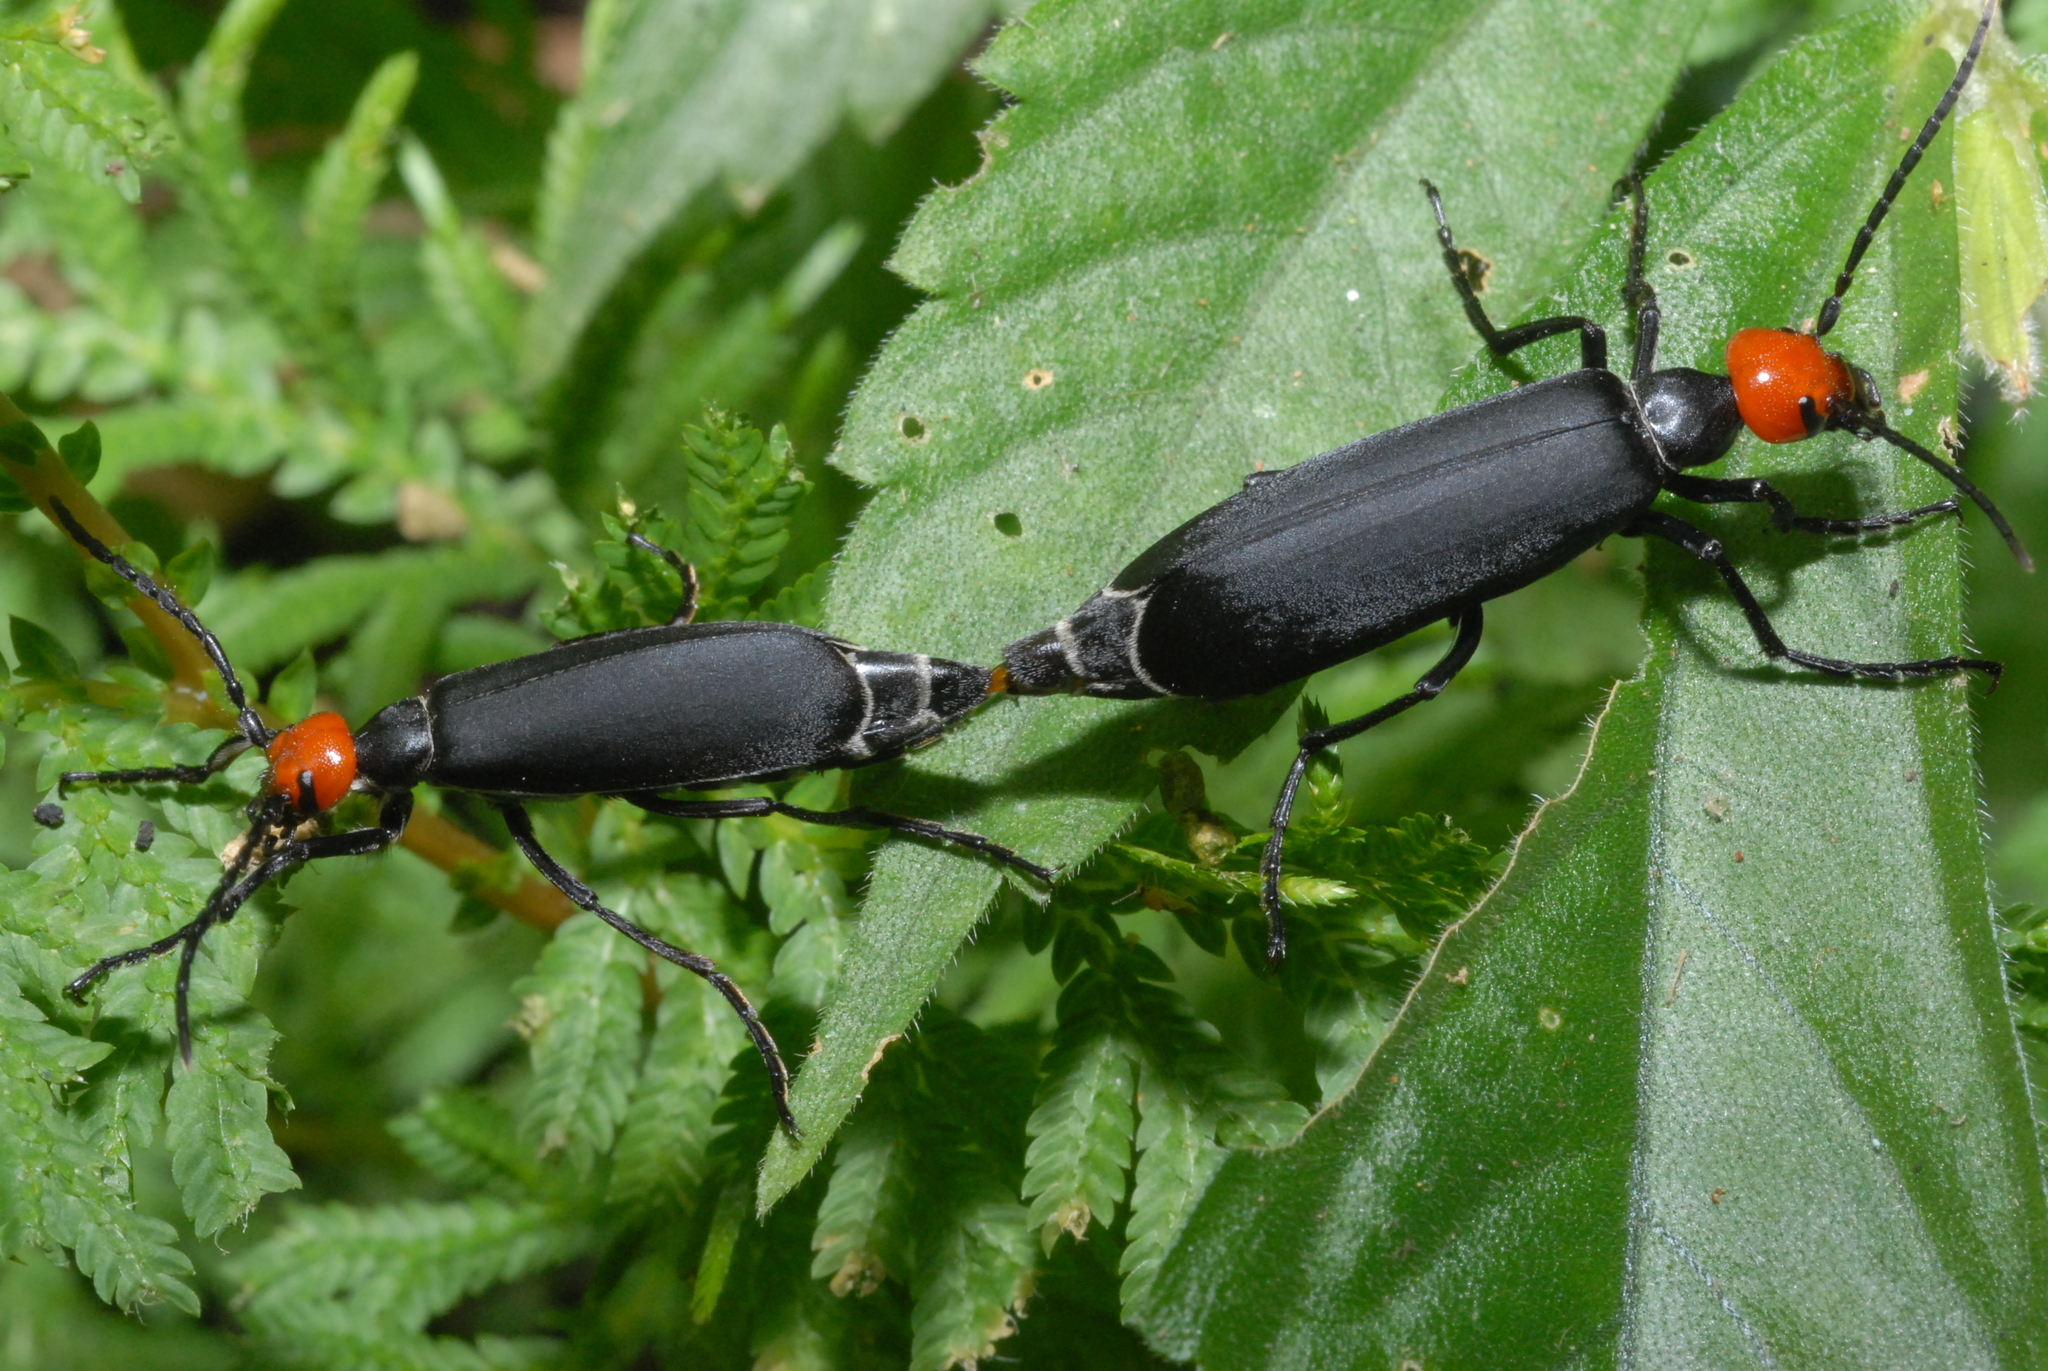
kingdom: Animalia
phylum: Arthropoda
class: Insecta
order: Coleoptera
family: Meloidae
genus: Epicauta
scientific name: Epicauta hirticornis
